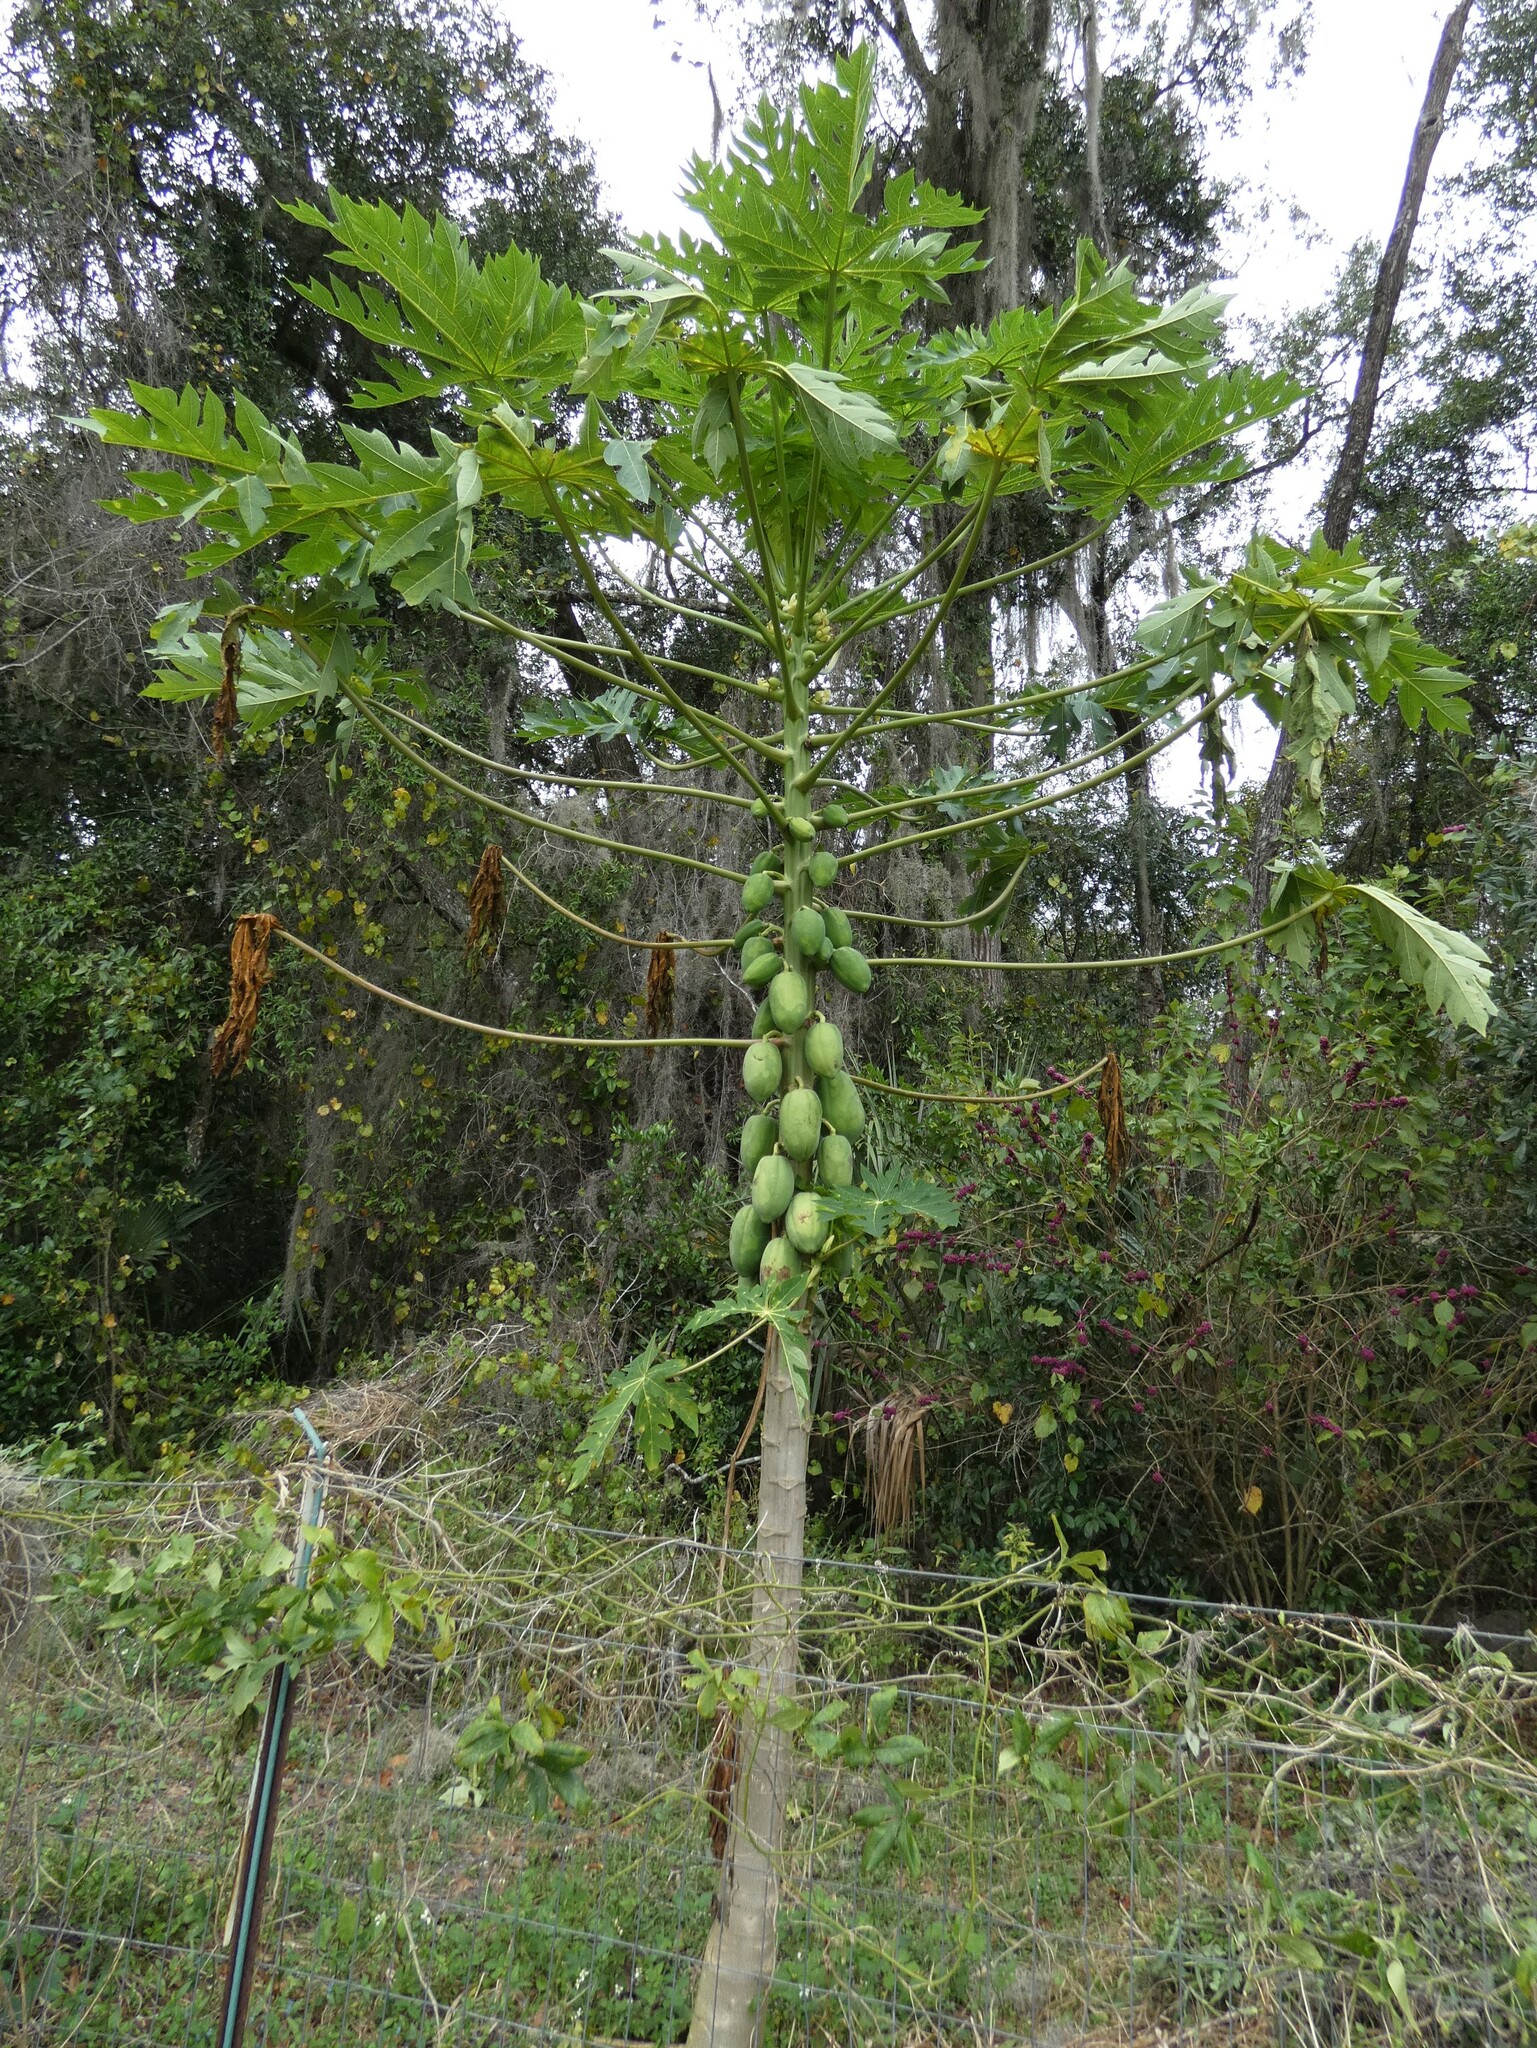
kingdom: Plantae
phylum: Tracheophyta
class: Magnoliopsida
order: Brassicales
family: Caricaceae
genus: Carica
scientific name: Carica papaya
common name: Papaya
